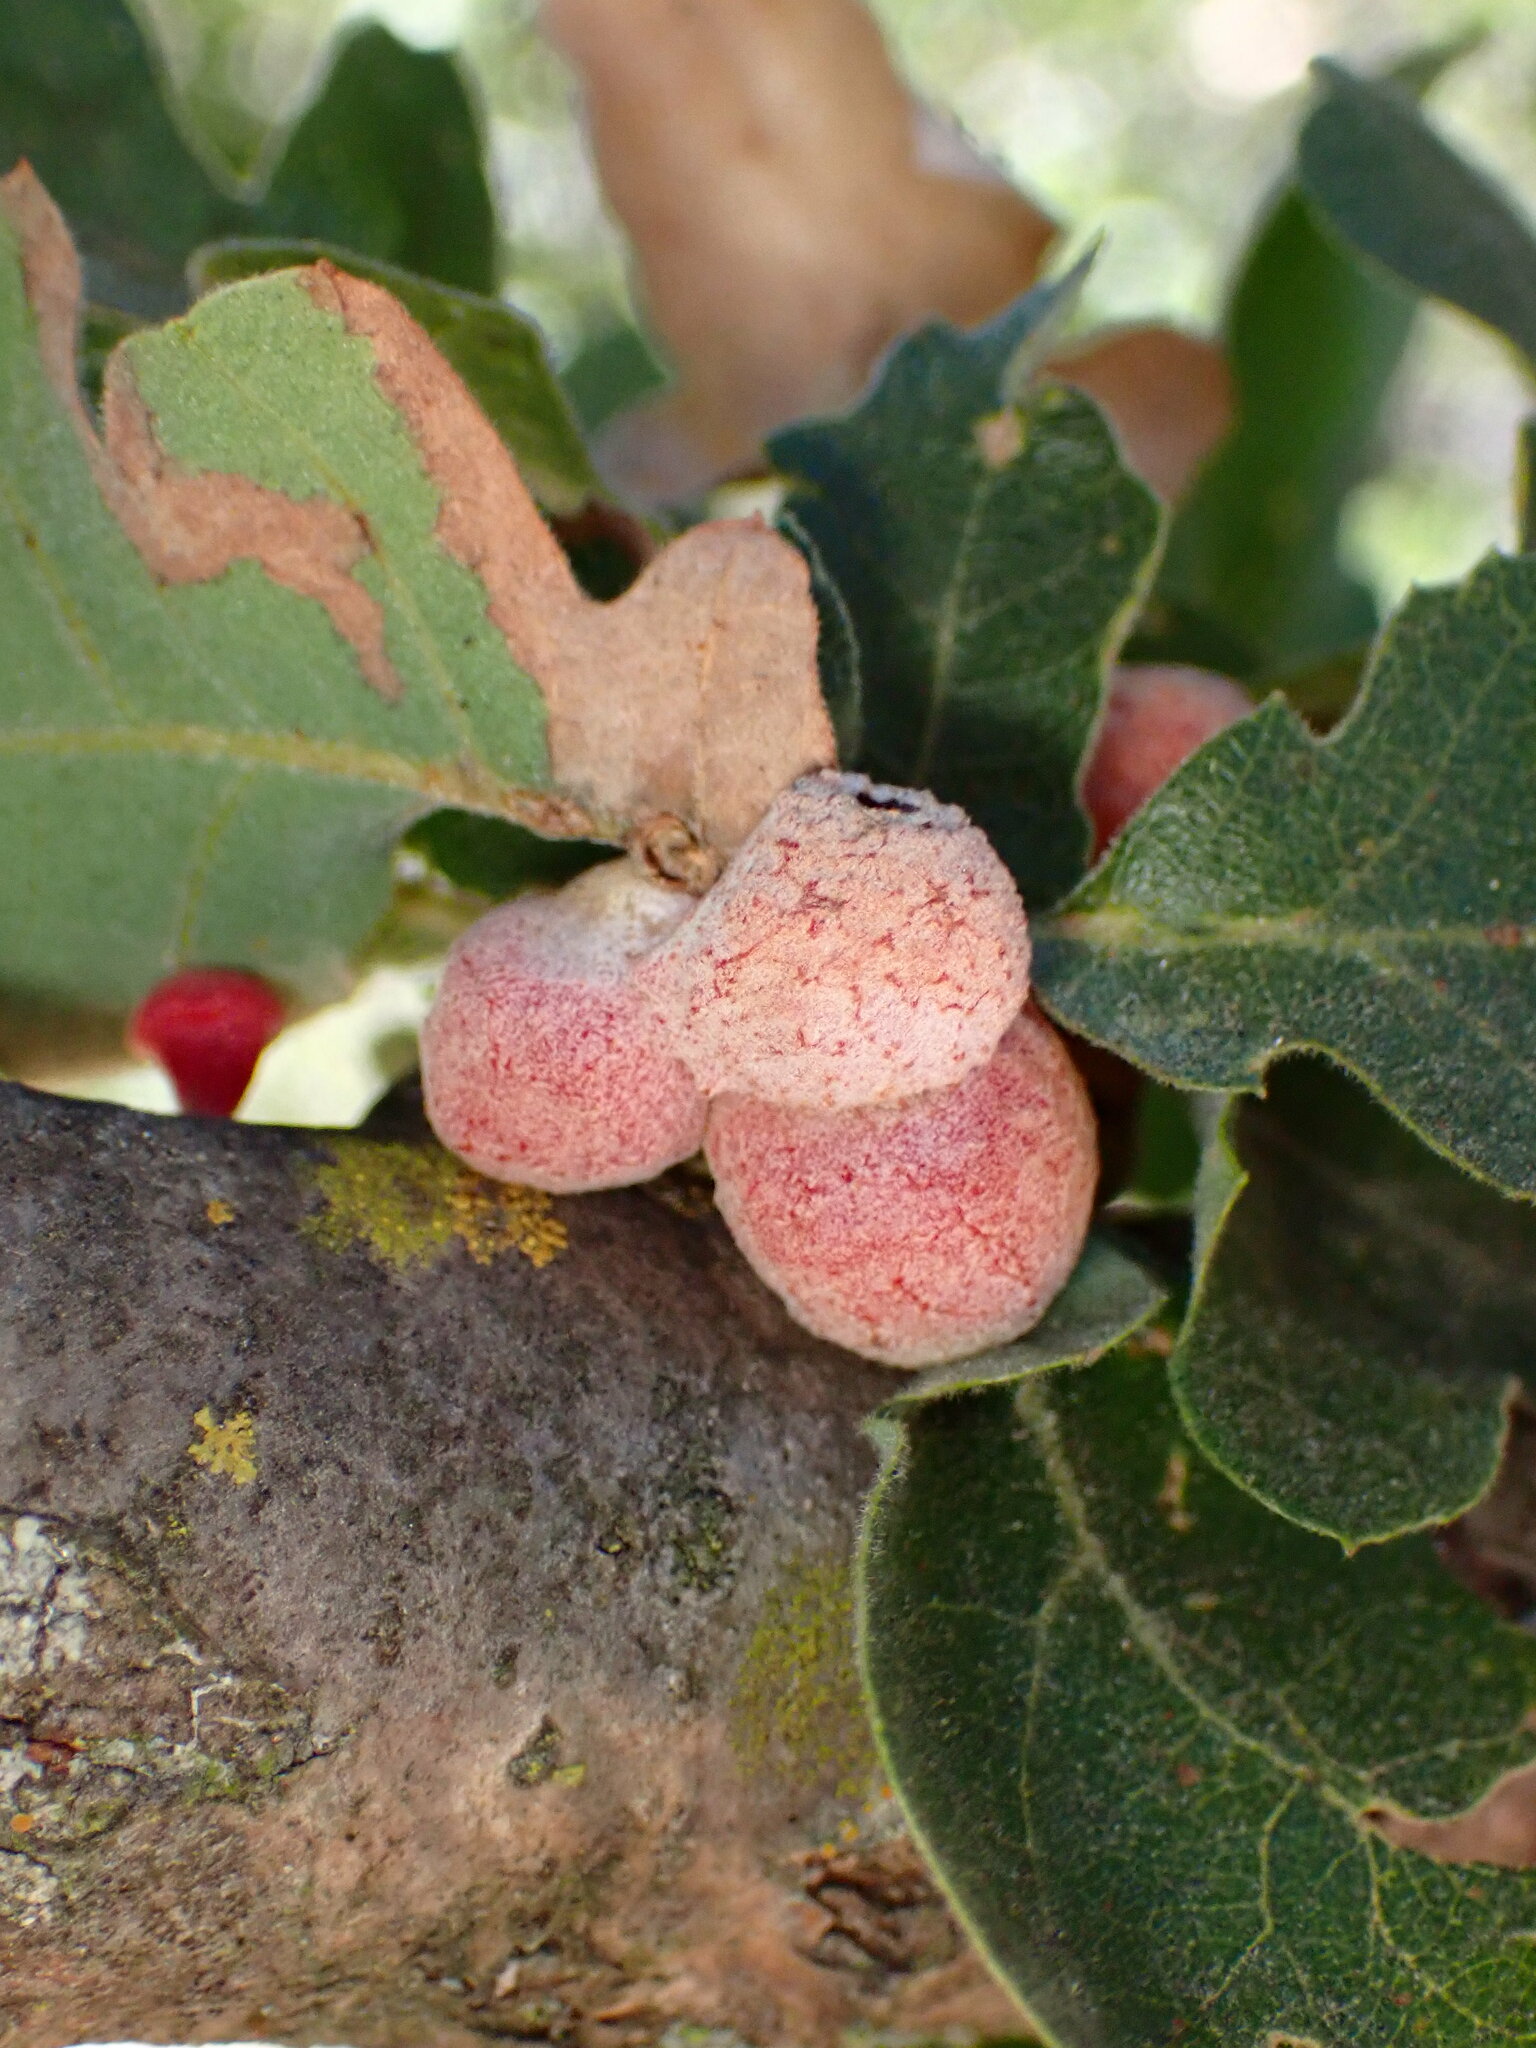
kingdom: Animalia
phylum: Arthropoda
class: Insecta
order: Hymenoptera
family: Cynipidae
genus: Cynips
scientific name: Cynips conspicua
